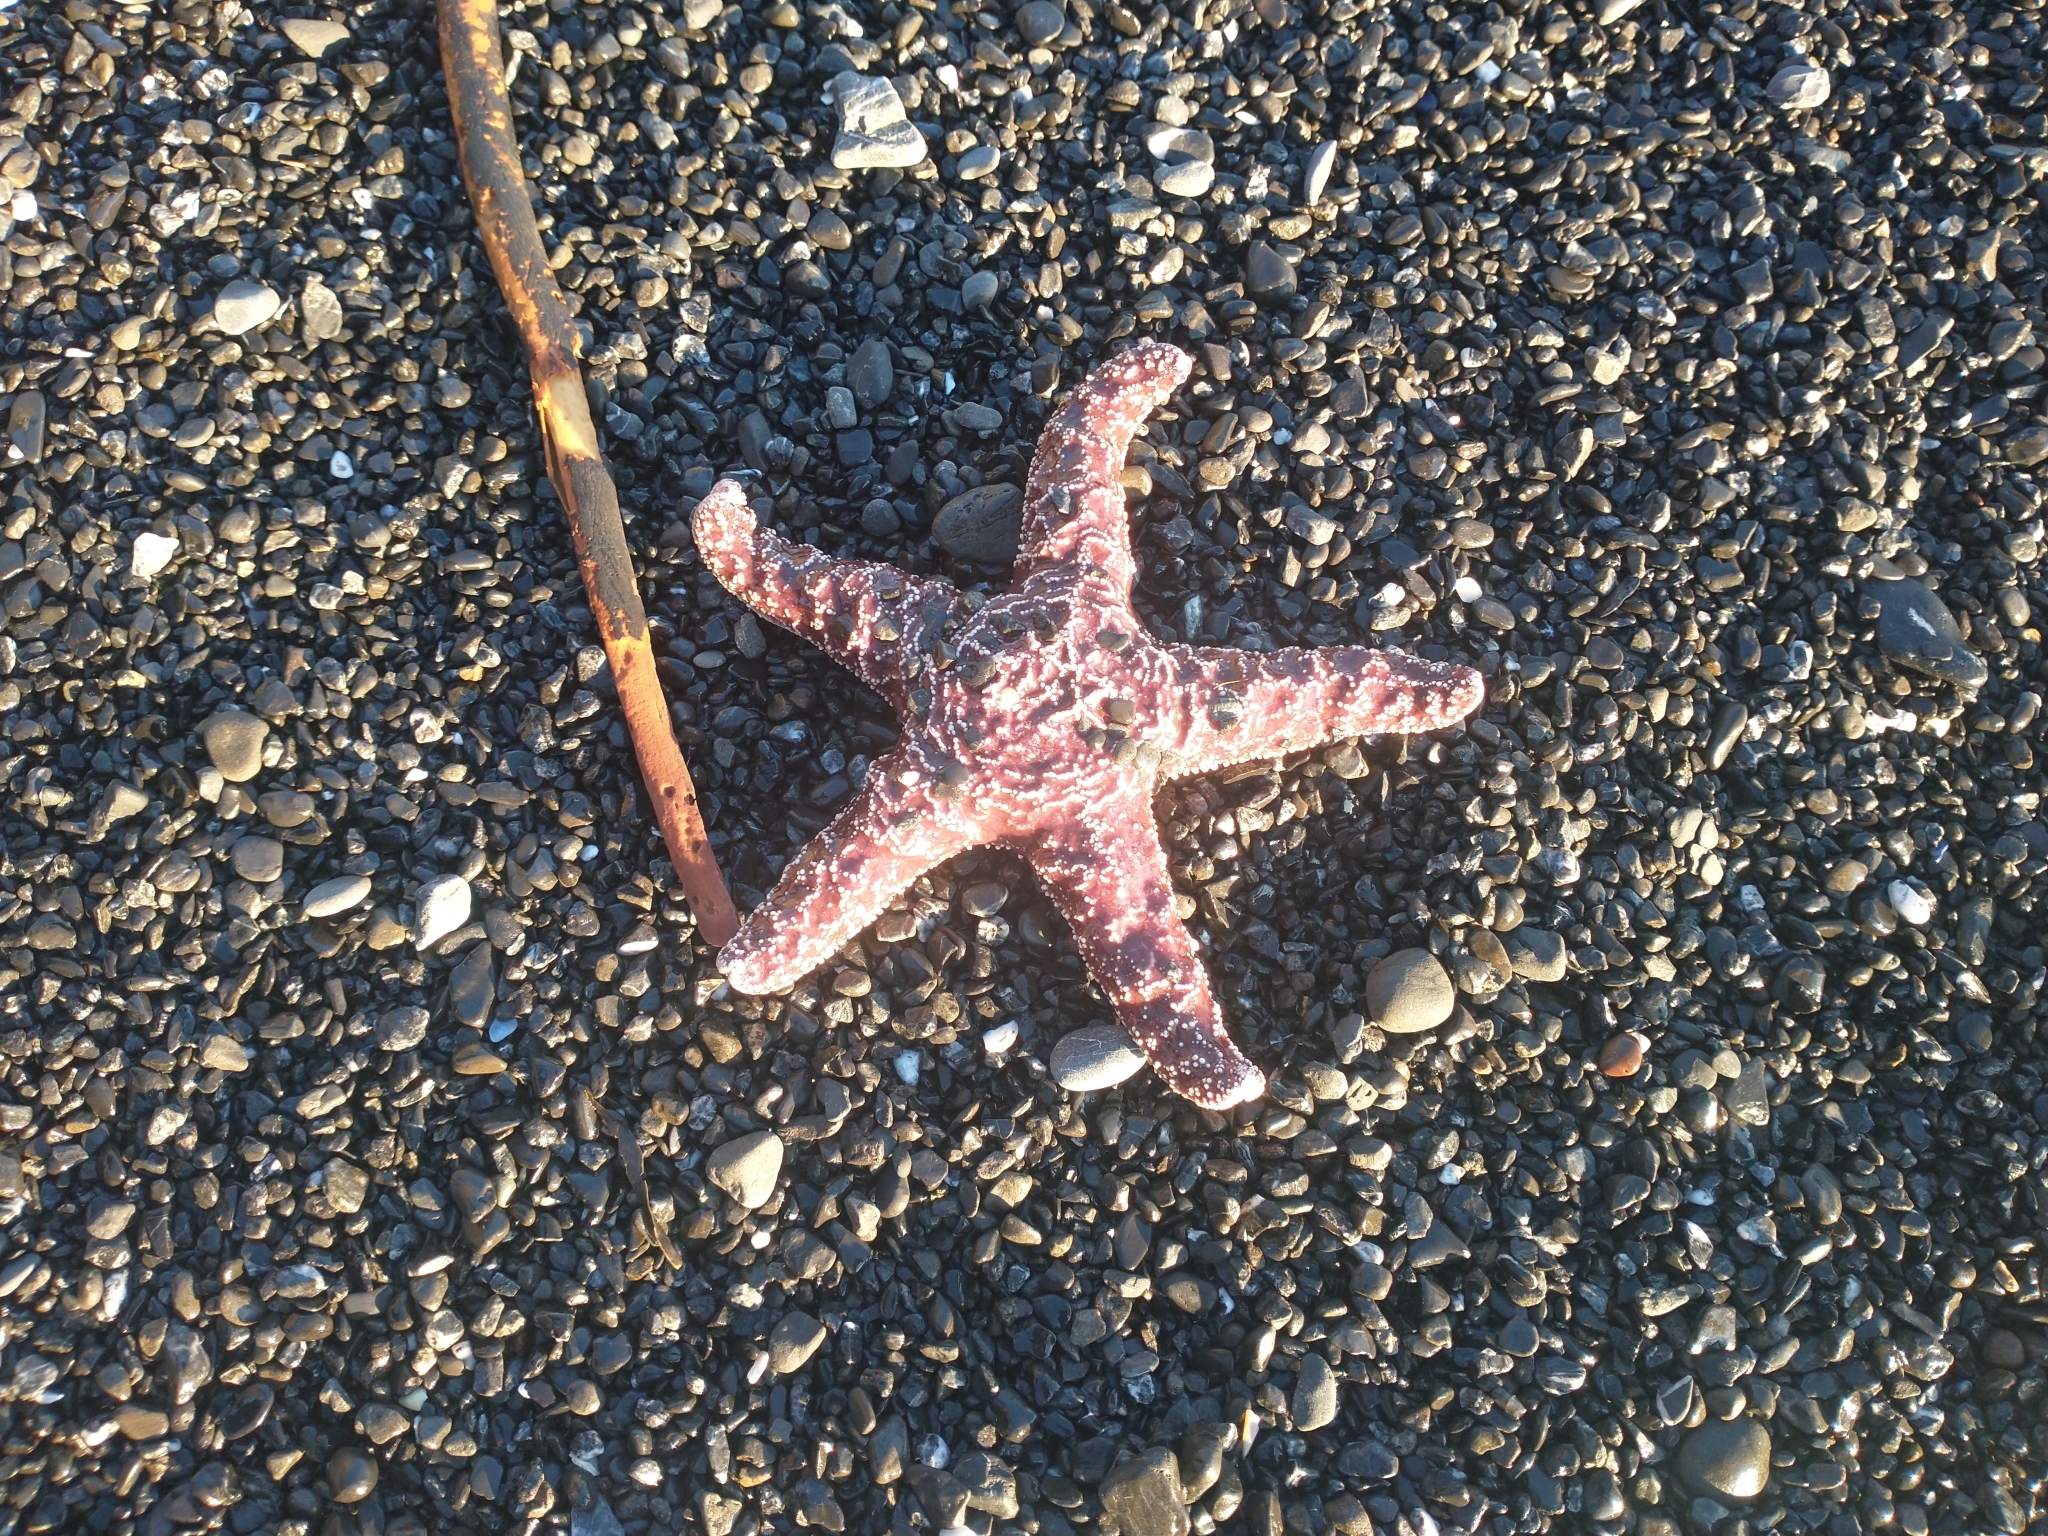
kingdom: Animalia
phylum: Echinodermata
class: Asteroidea
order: Forcipulatida
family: Asteriidae
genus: Pisaster
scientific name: Pisaster ochraceus
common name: Ochre stars
